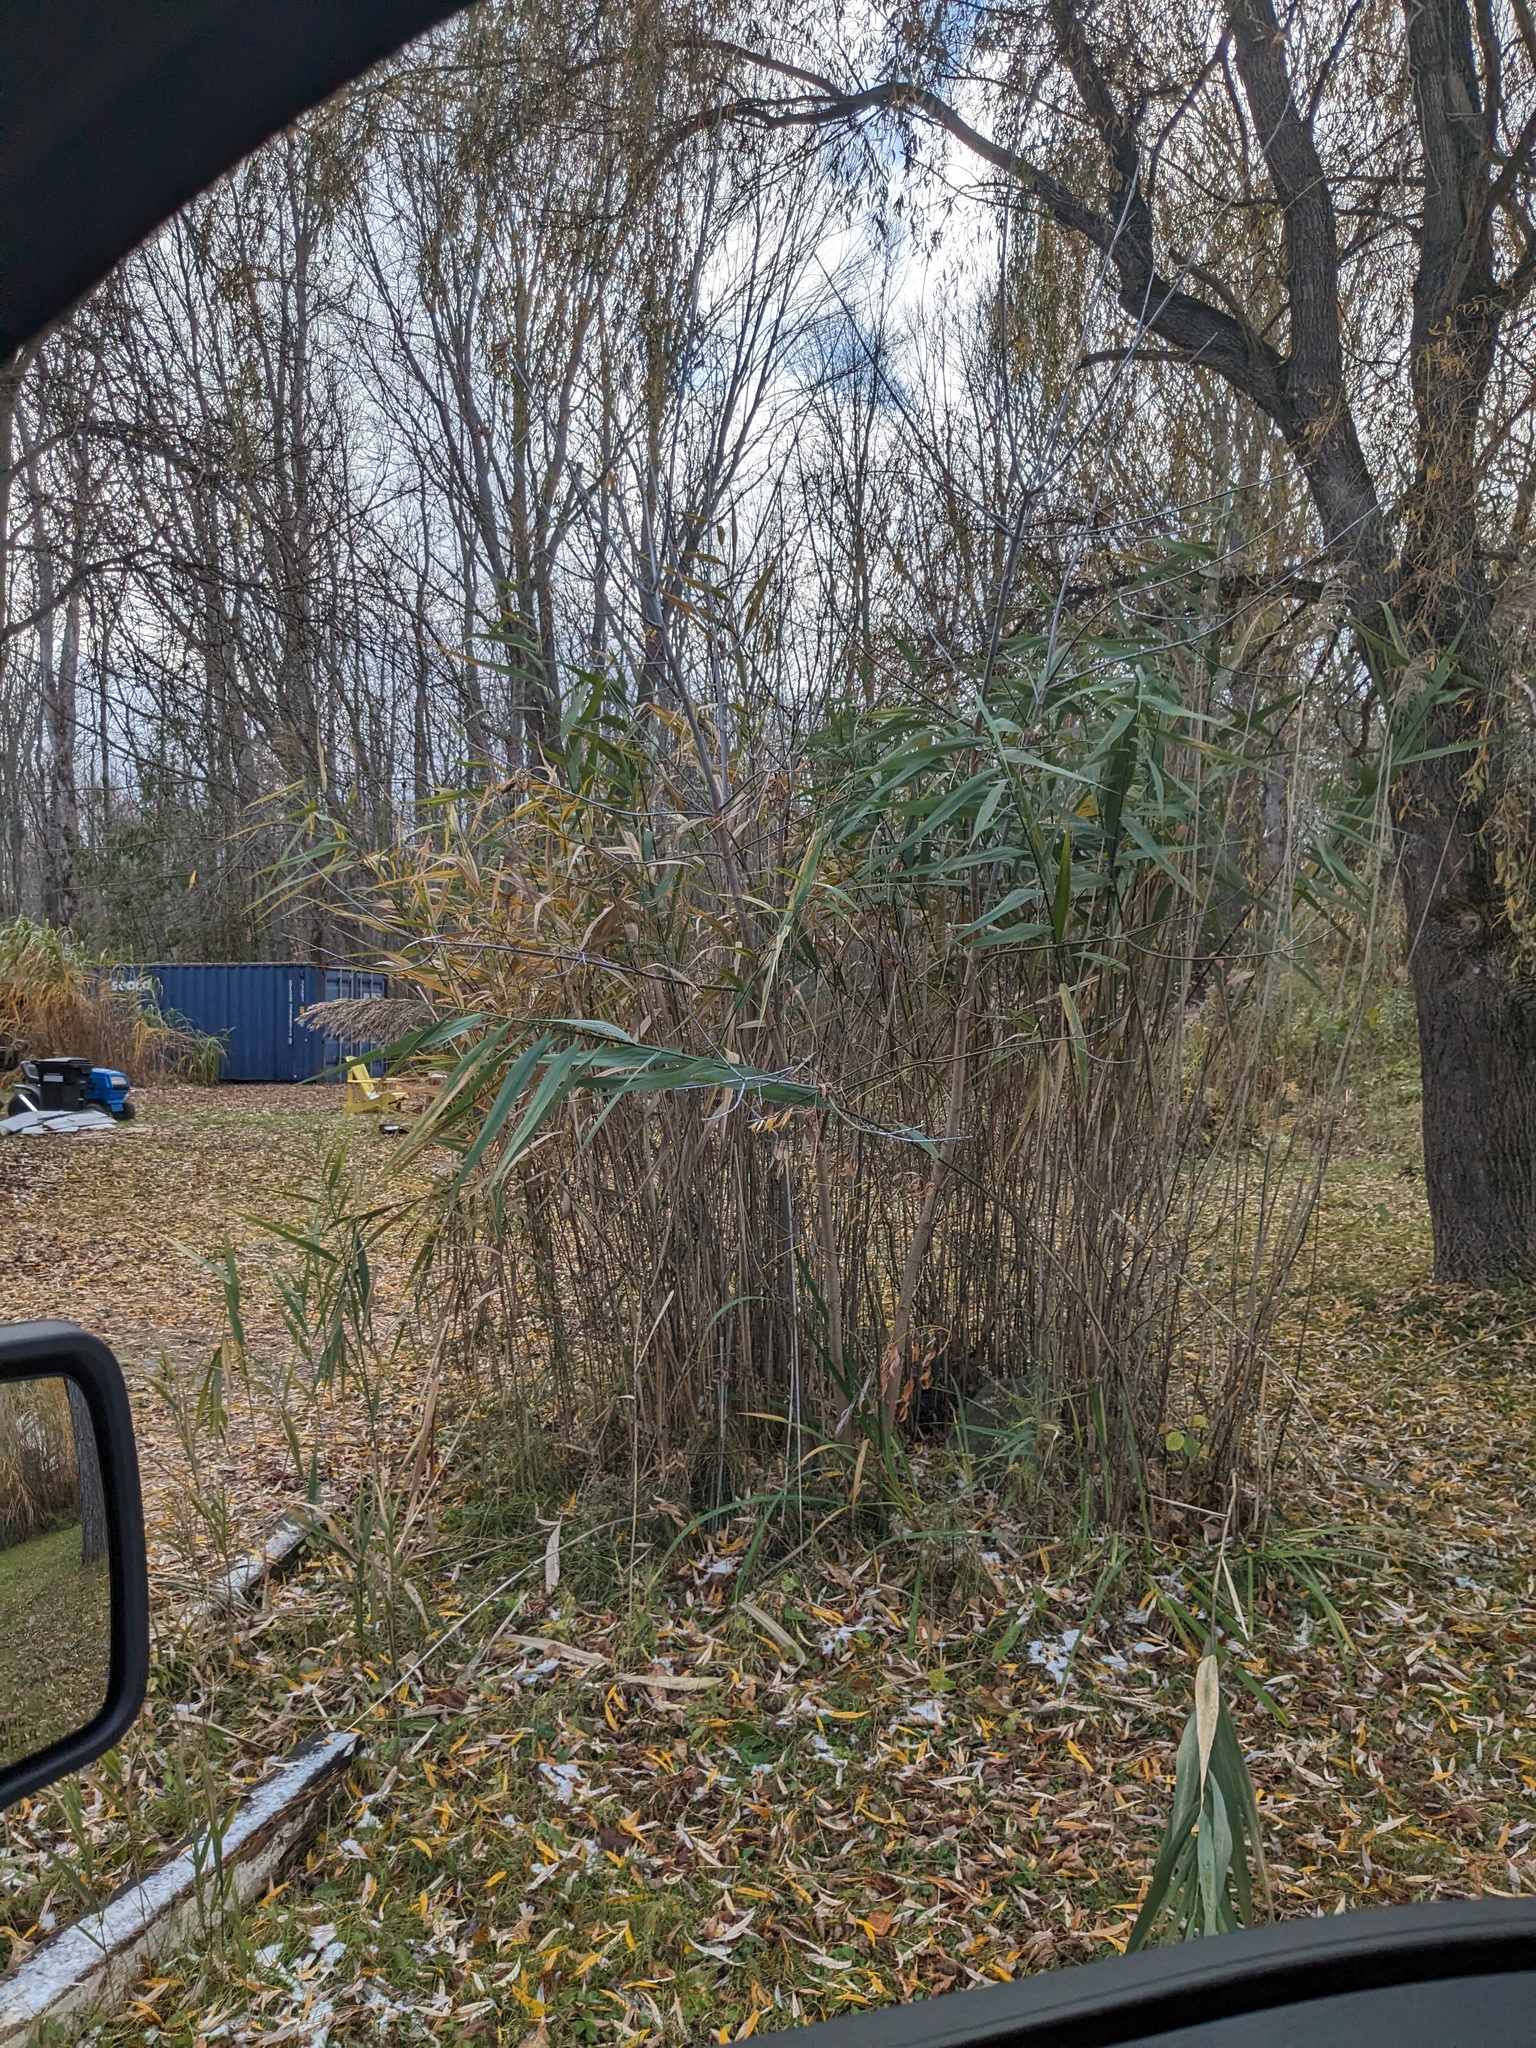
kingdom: Plantae
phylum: Tracheophyta
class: Liliopsida
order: Poales
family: Poaceae
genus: Phragmites
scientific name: Phragmites australis
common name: Common reed
